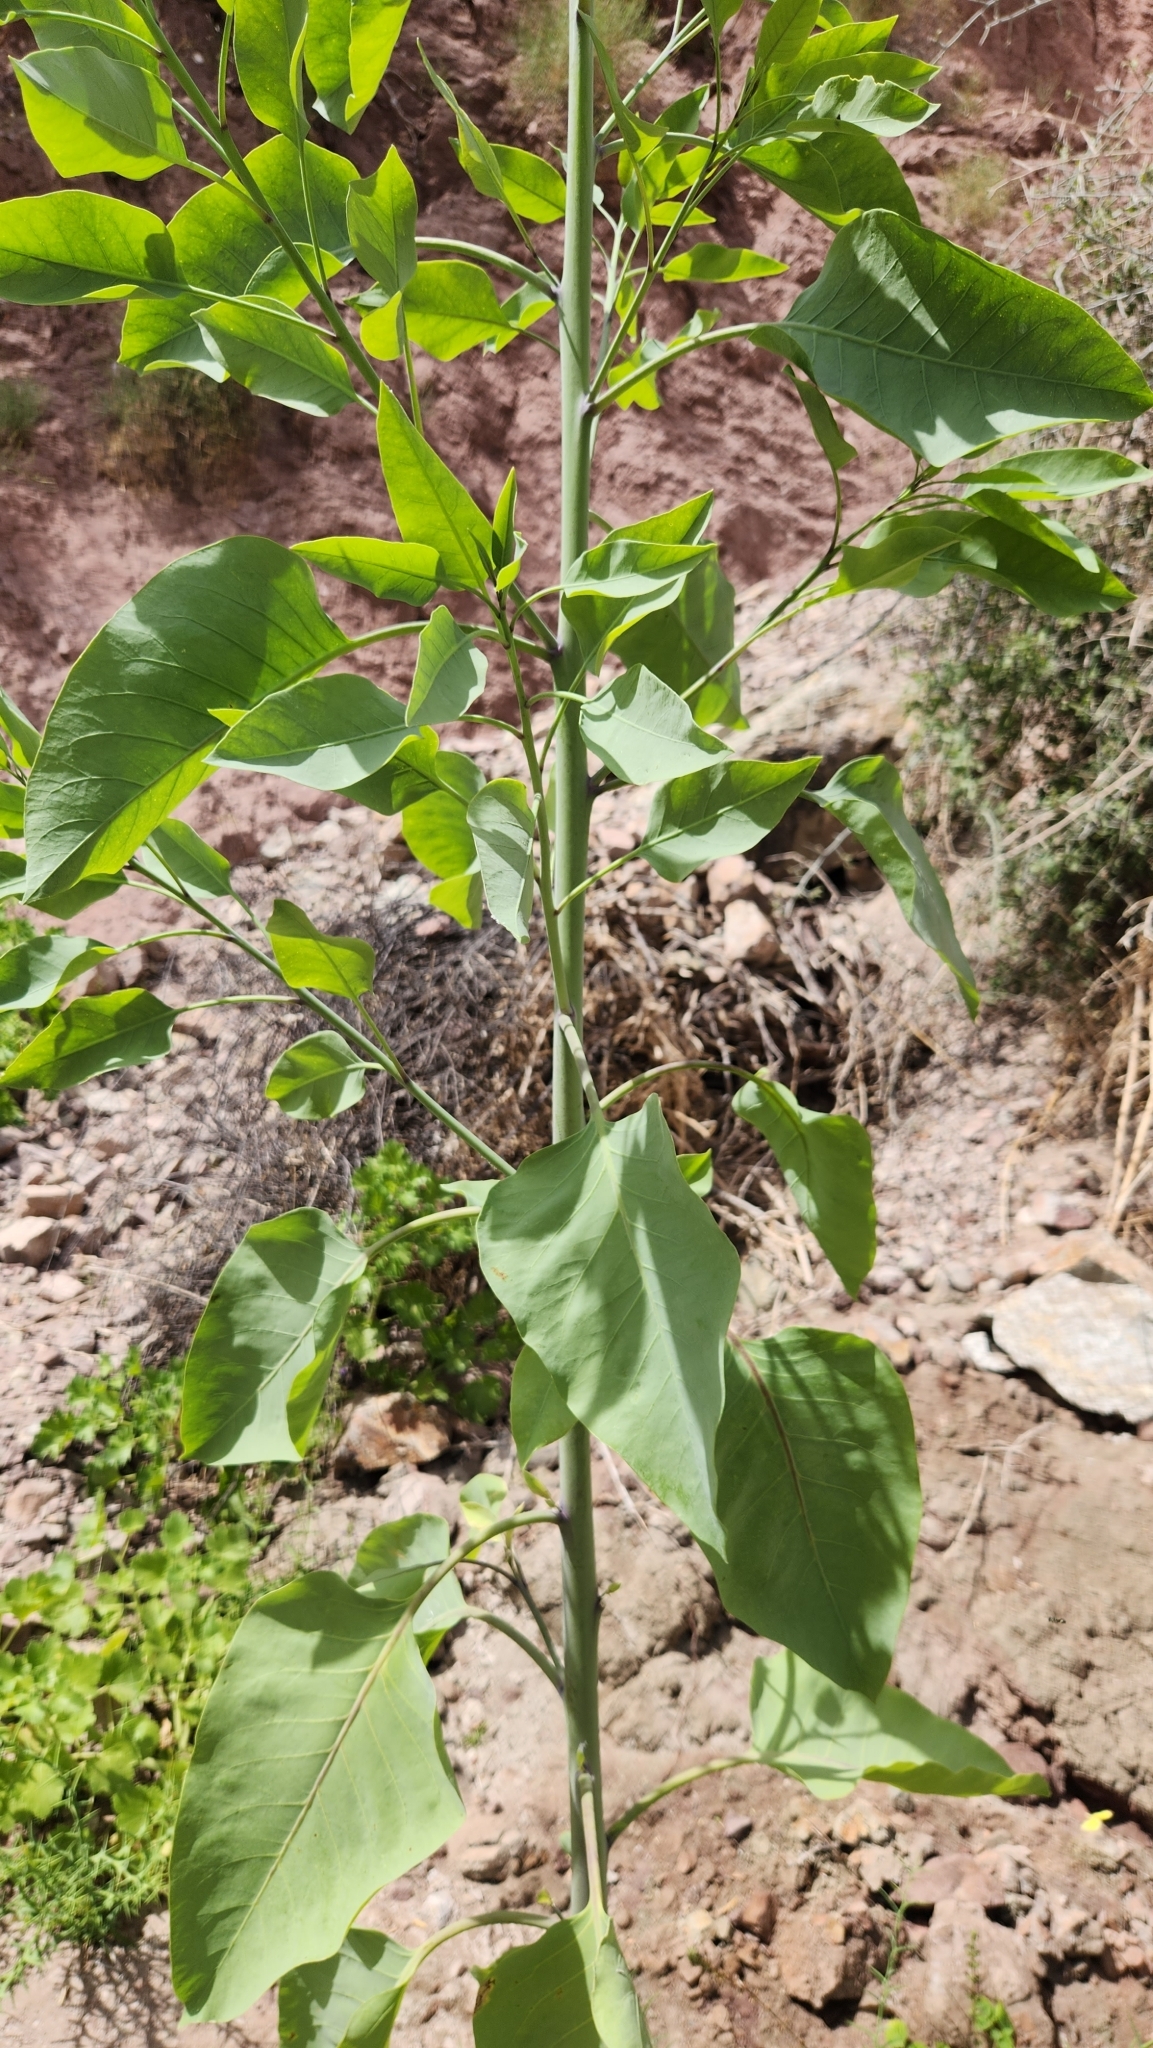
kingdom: Plantae
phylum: Tracheophyta
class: Magnoliopsida
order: Solanales
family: Solanaceae
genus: Nicotiana
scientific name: Nicotiana glauca
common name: Tree tobacco
